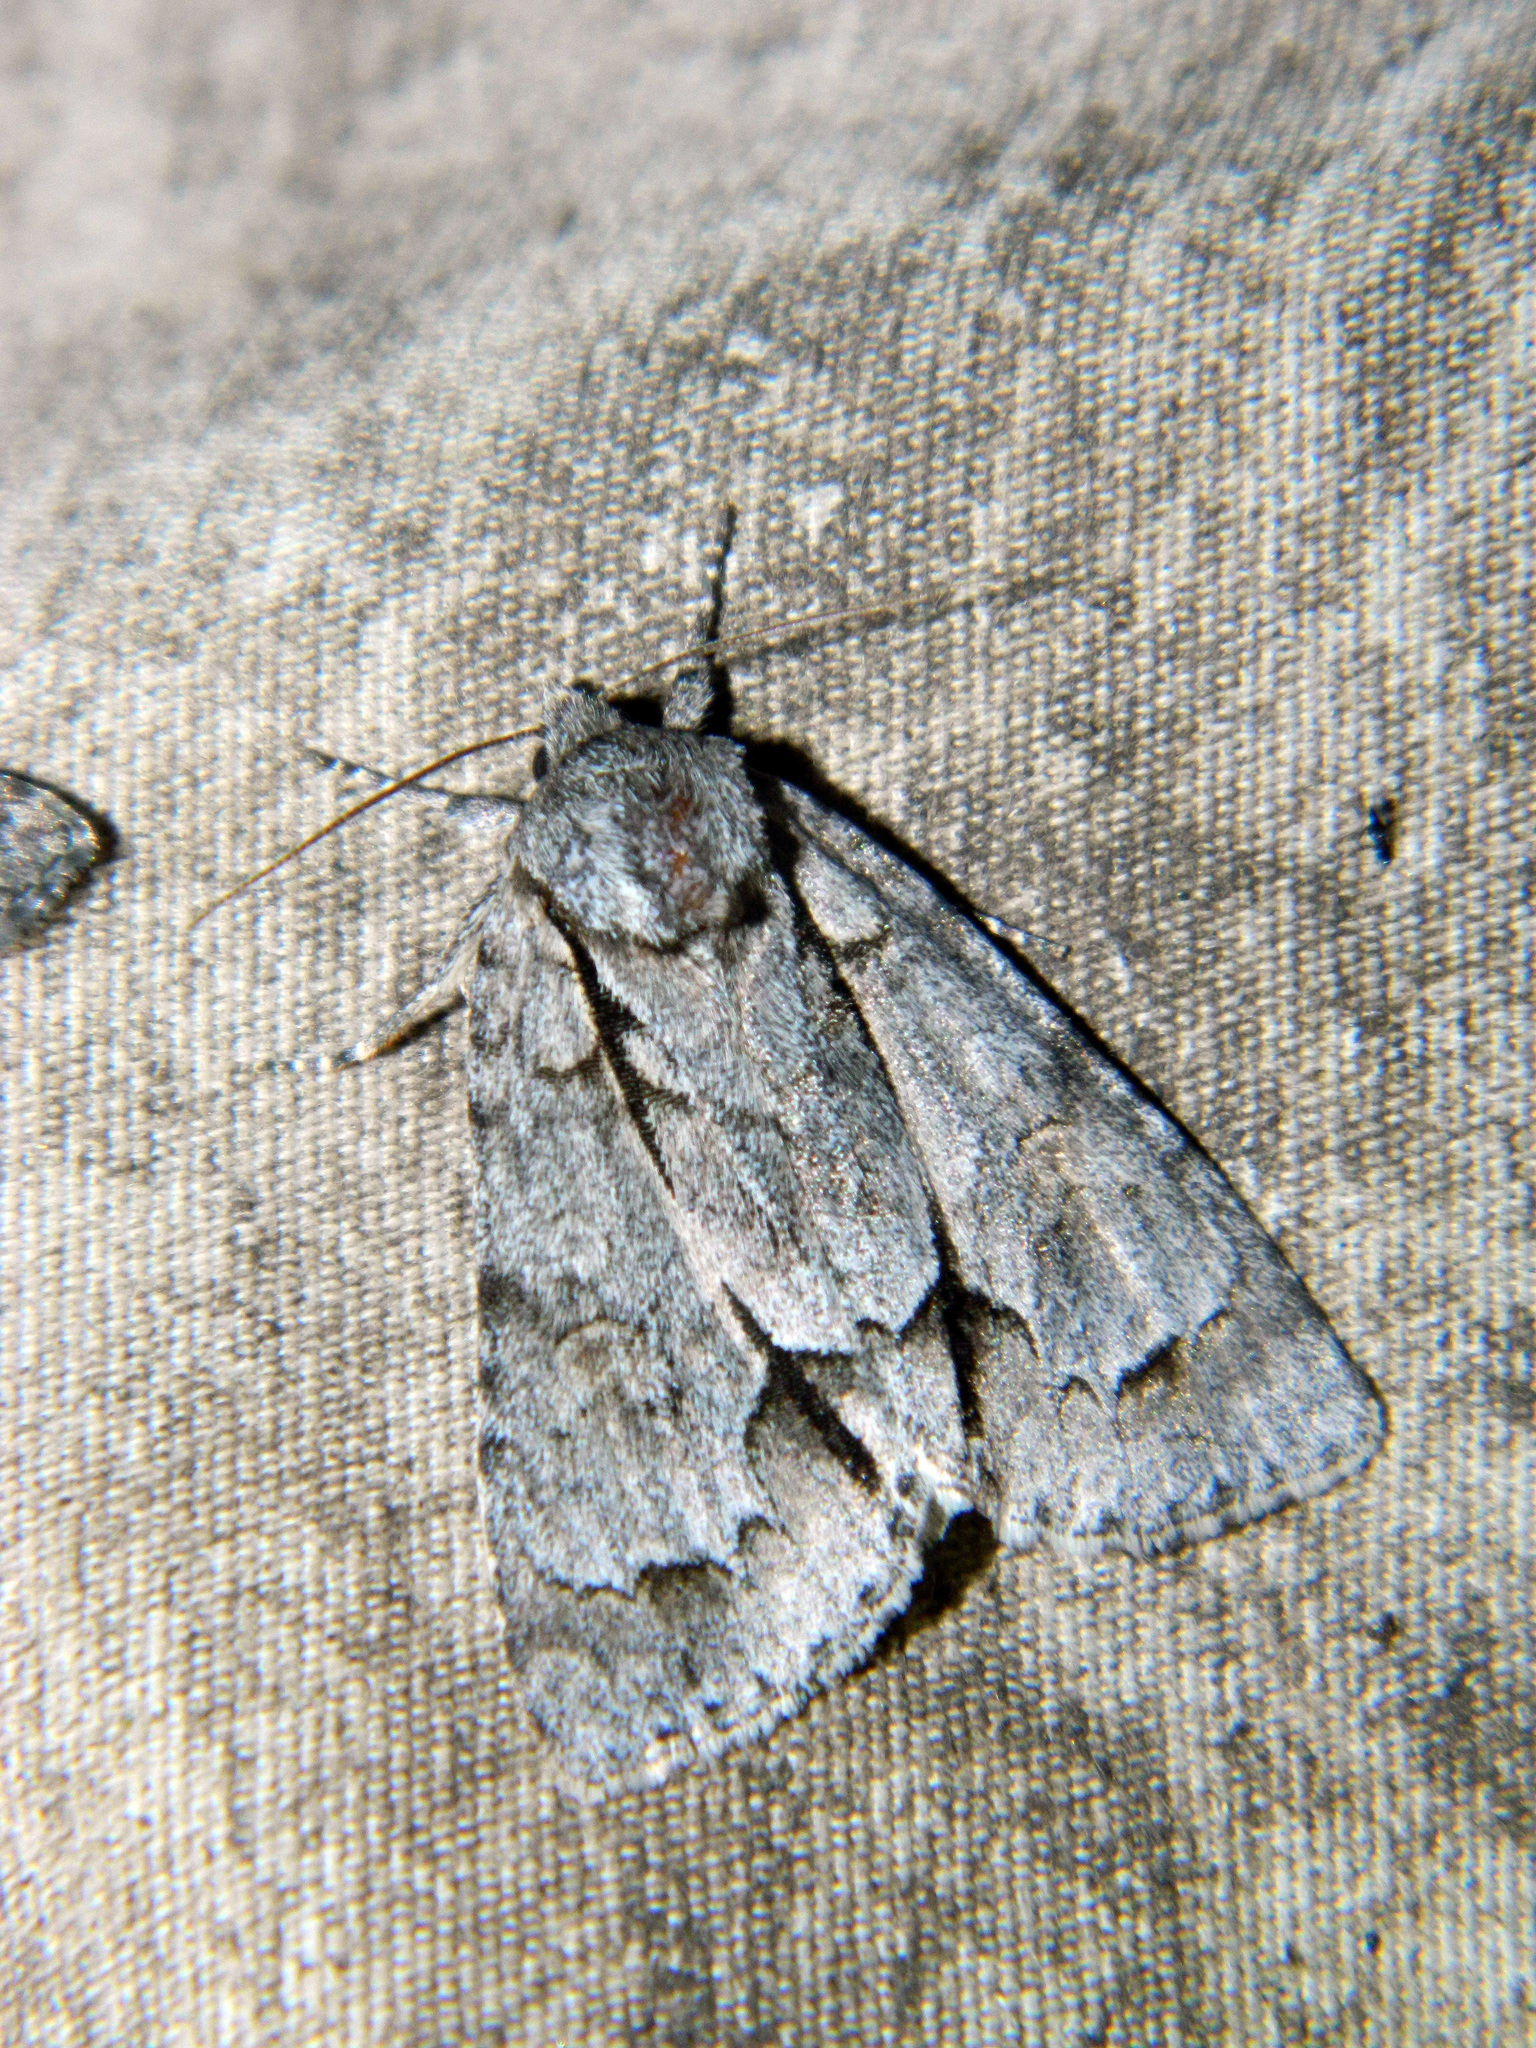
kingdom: Animalia
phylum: Arthropoda
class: Insecta
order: Lepidoptera
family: Noctuidae
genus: Acronicta
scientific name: Acronicta grisea
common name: Gray dagger
